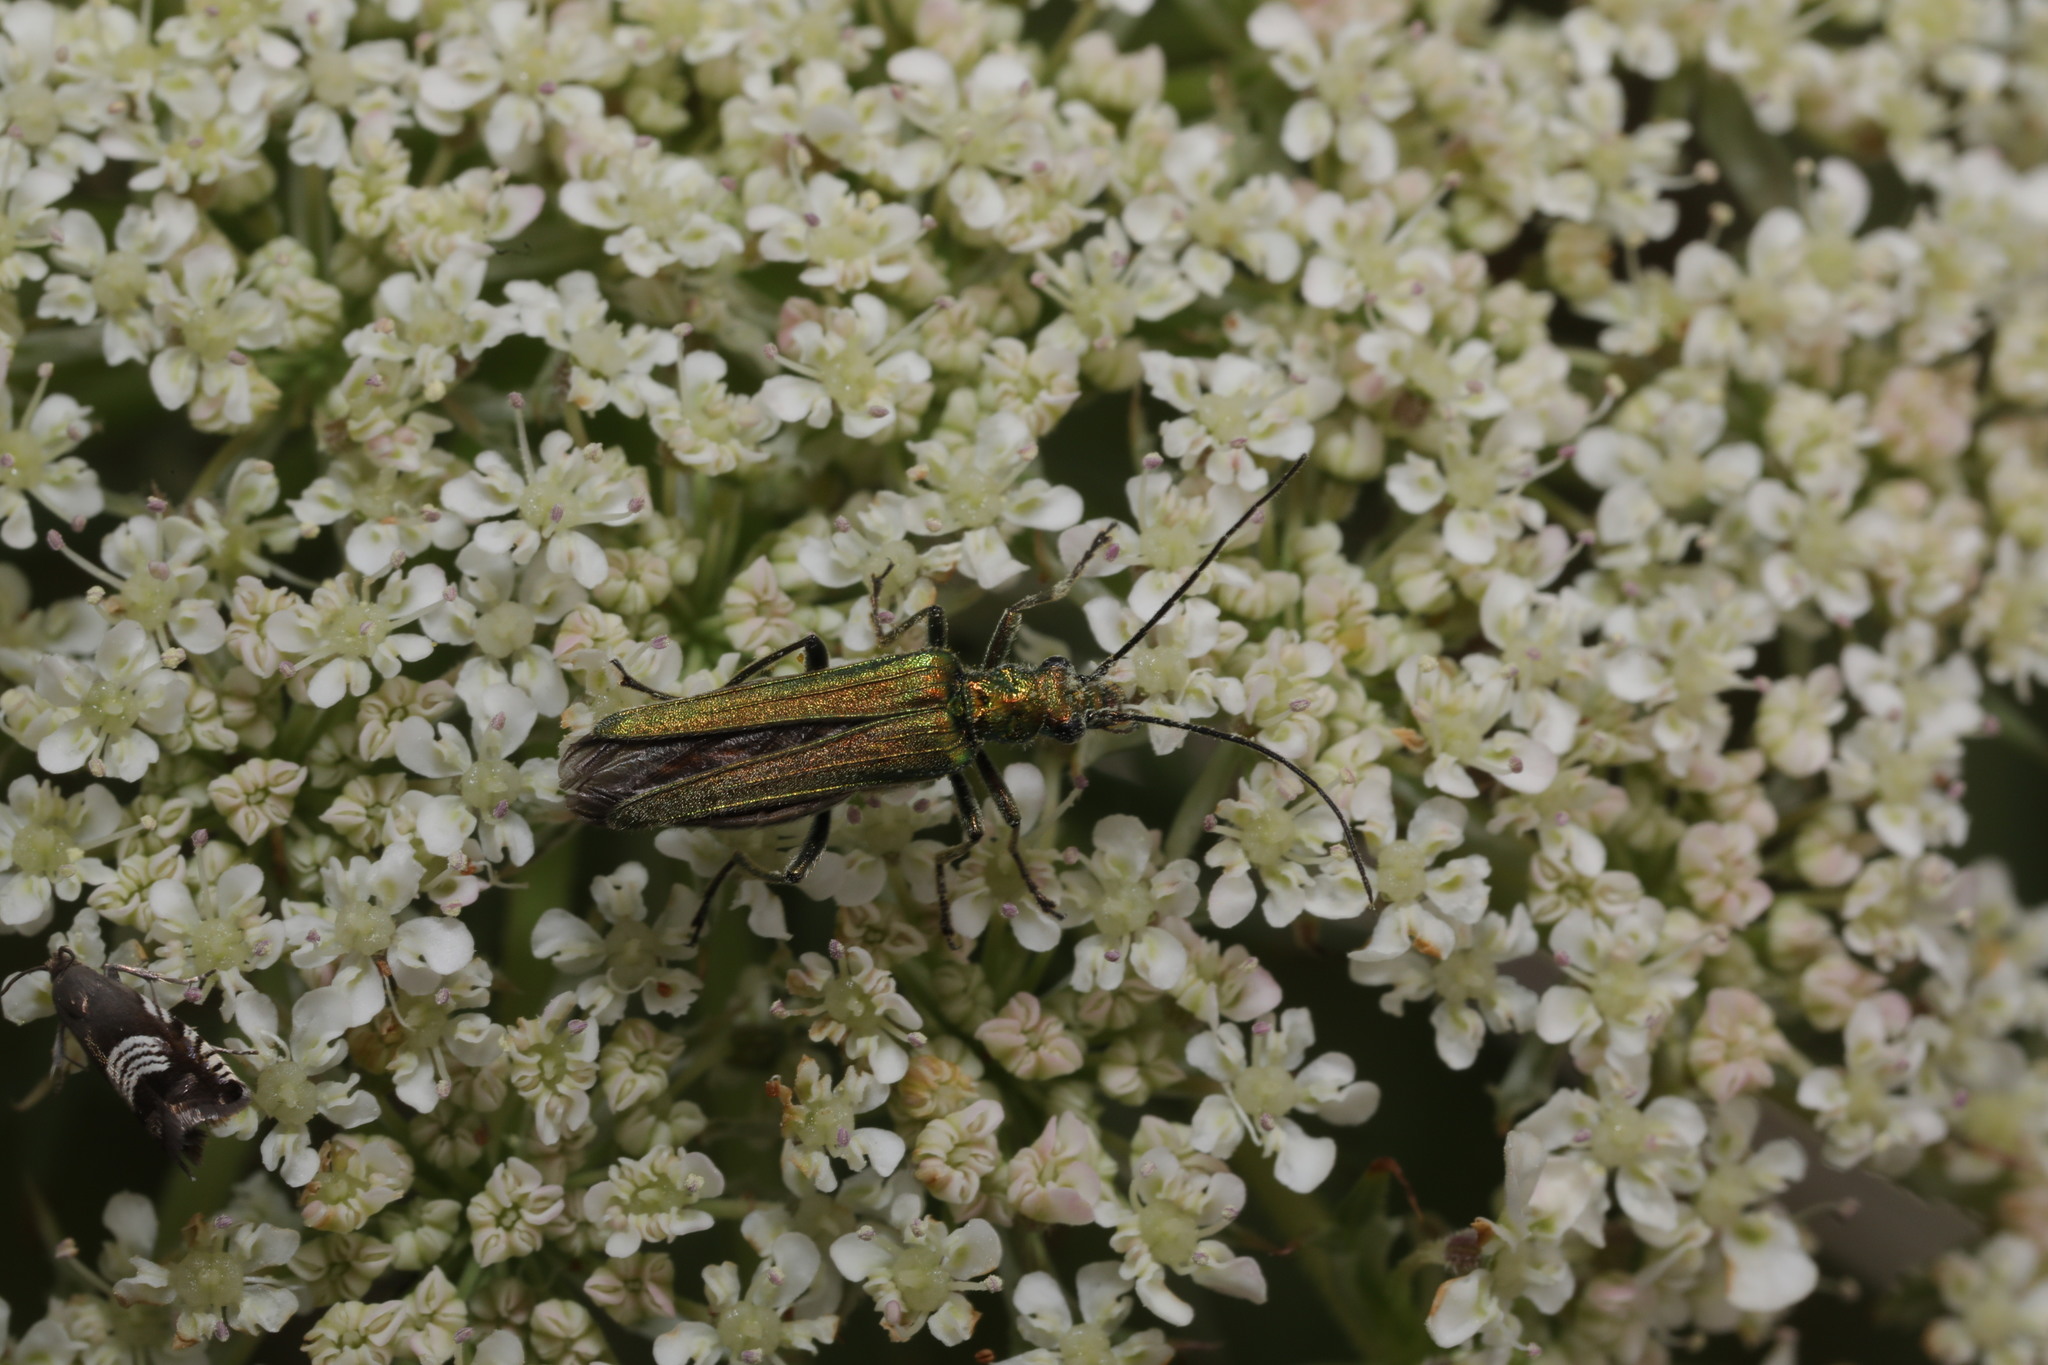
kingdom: Animalia
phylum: Arthropoda
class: Insecta
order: Coleoptera
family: Oedemeridae
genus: Oedemera
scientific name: Oedemera nobilis
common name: Swollen-thighed beetle
